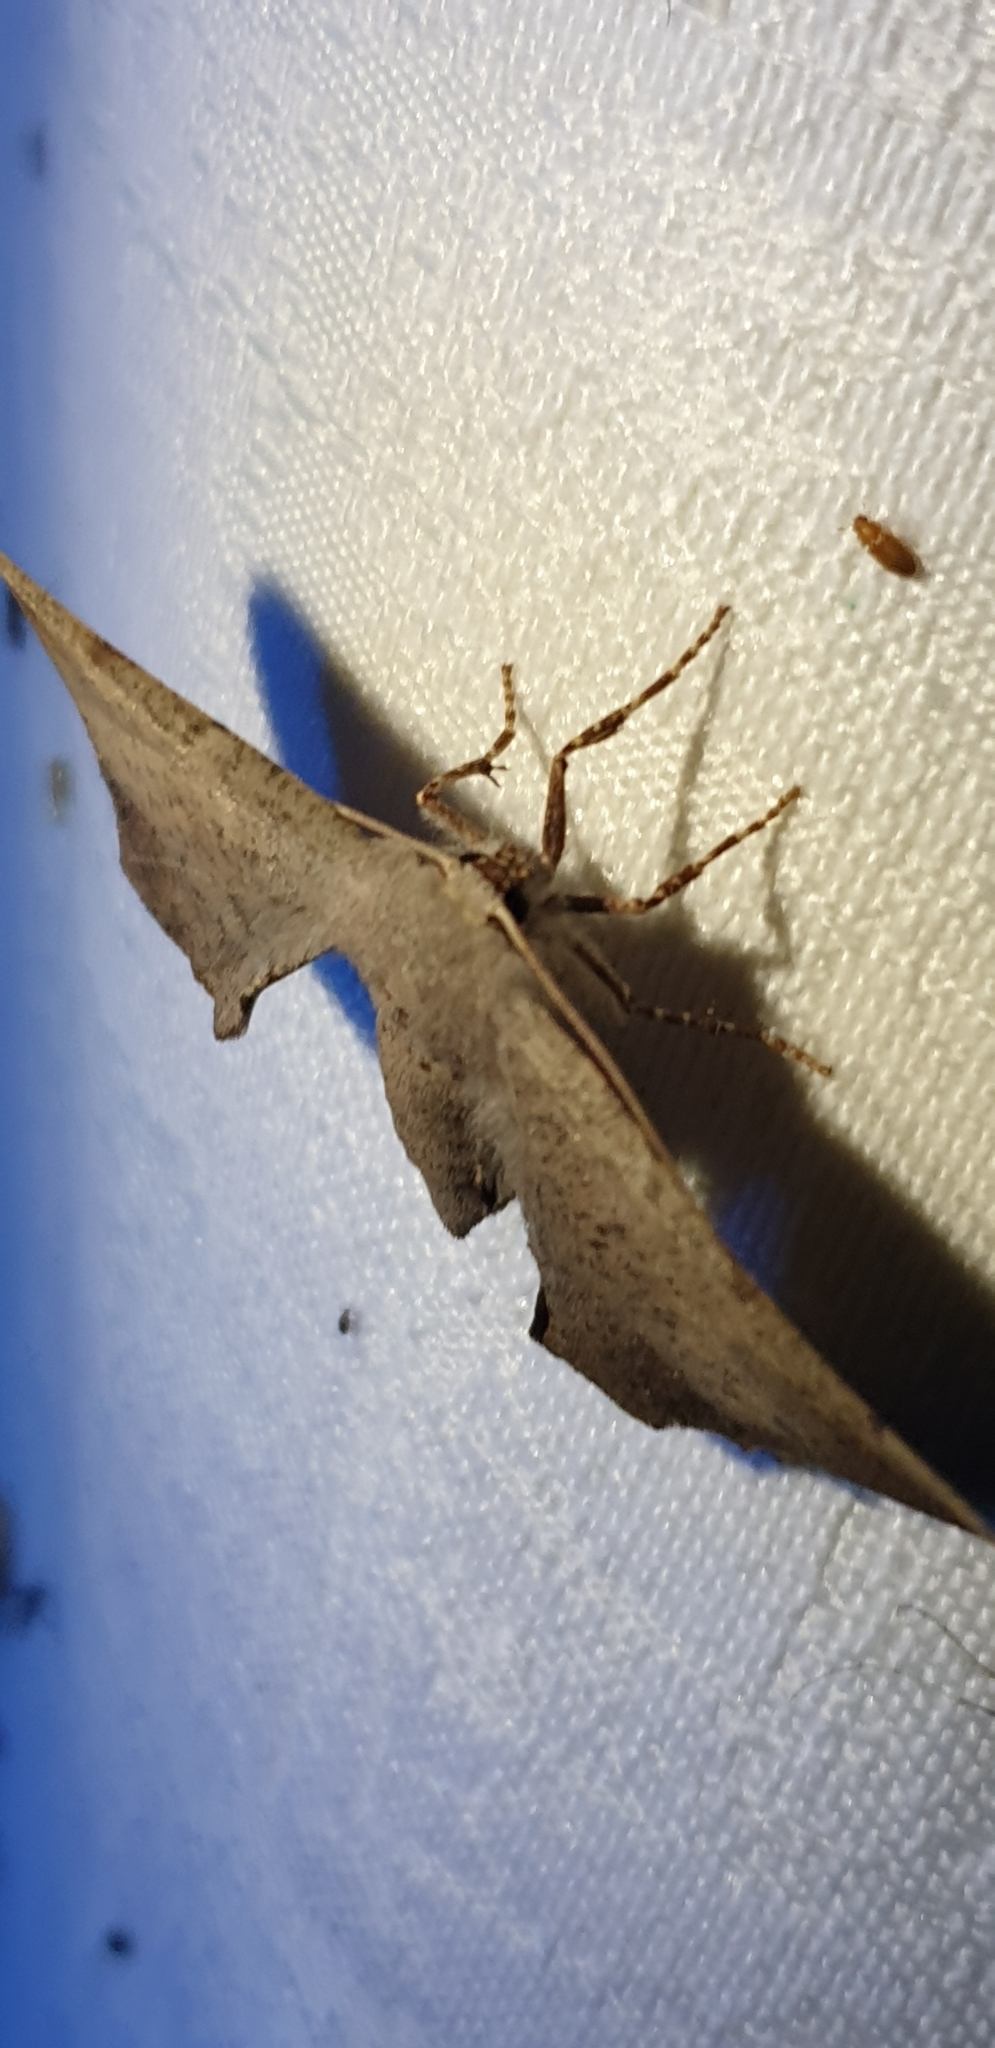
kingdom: Animalia
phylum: Arthropoda
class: Insecta
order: Lepidoptera
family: Geometridae
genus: Circopetes
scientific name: Circopetes obtusata
